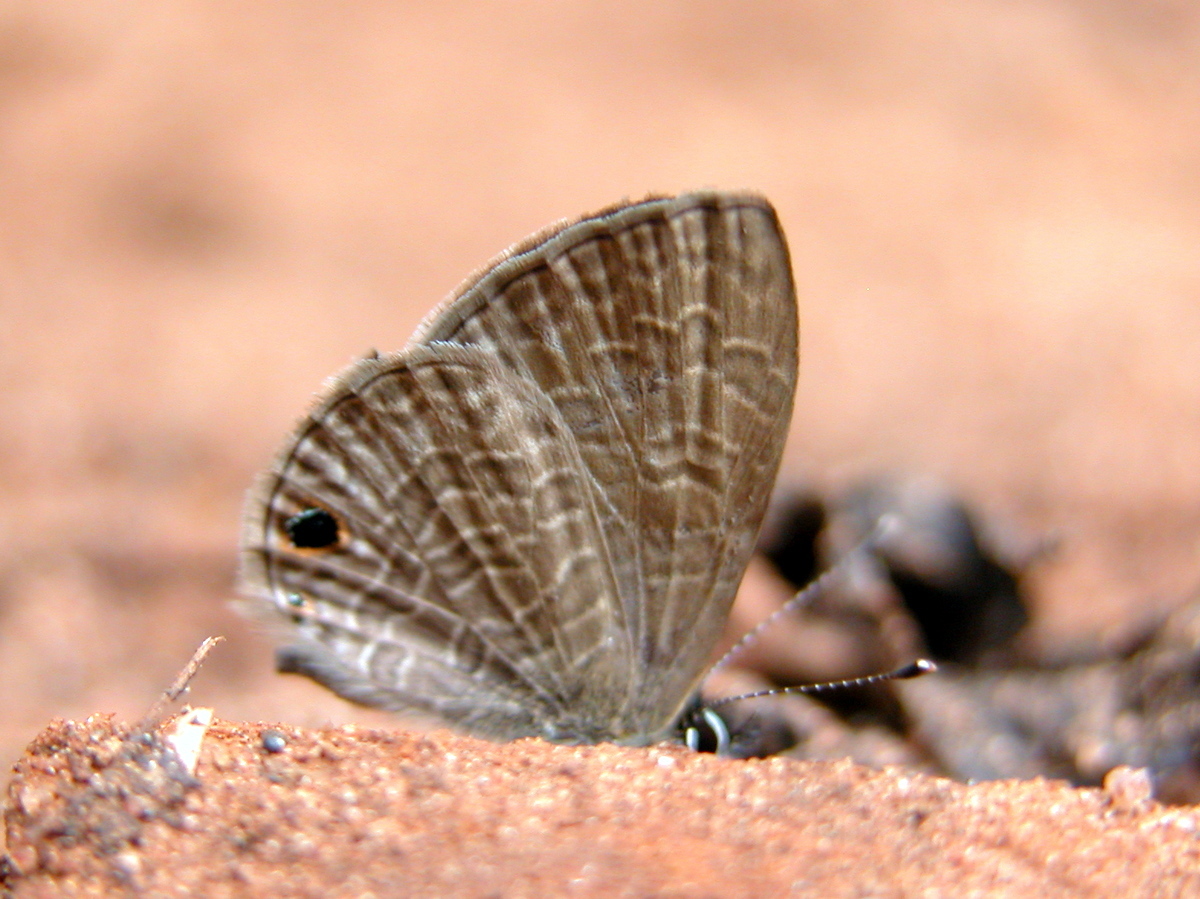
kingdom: Animalia
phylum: Arthropoda
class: Insecta
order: Lepidoptera
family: Lycaenidae
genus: Prosotas
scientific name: Prosotas dubiosa
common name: Tailless lineblue
